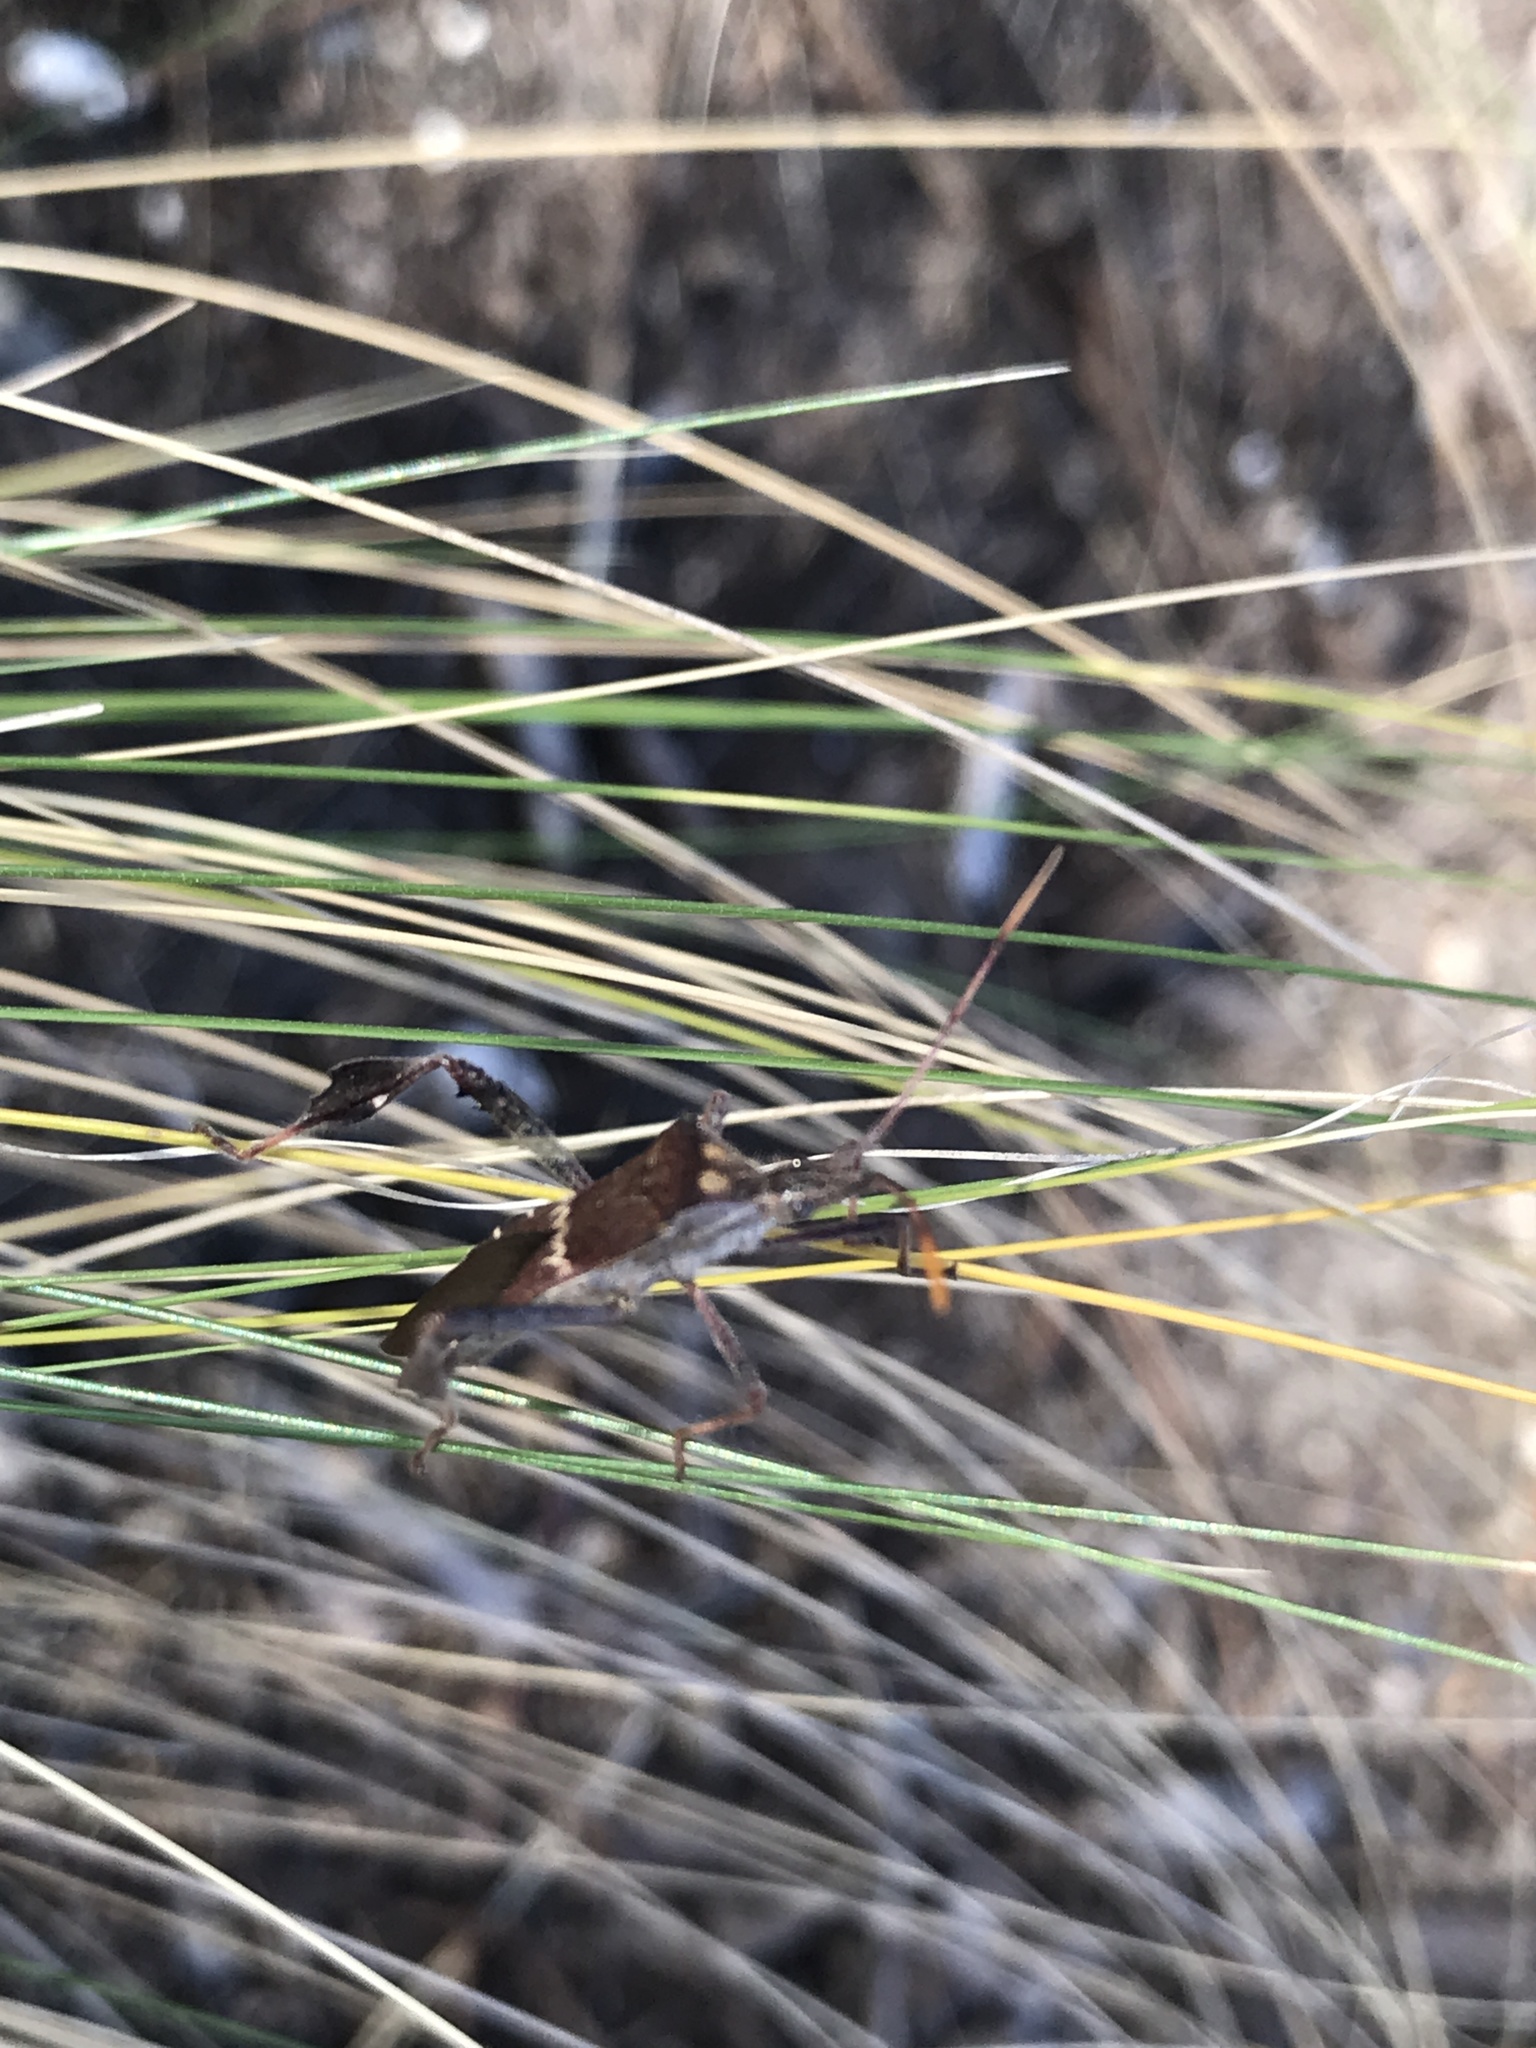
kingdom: Animalia
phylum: Arthropoda
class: Insecta
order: Hemiptera
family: Coreidae
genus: Leptoglossus
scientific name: Leptoglossus zonatus
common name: Large-legged bug
